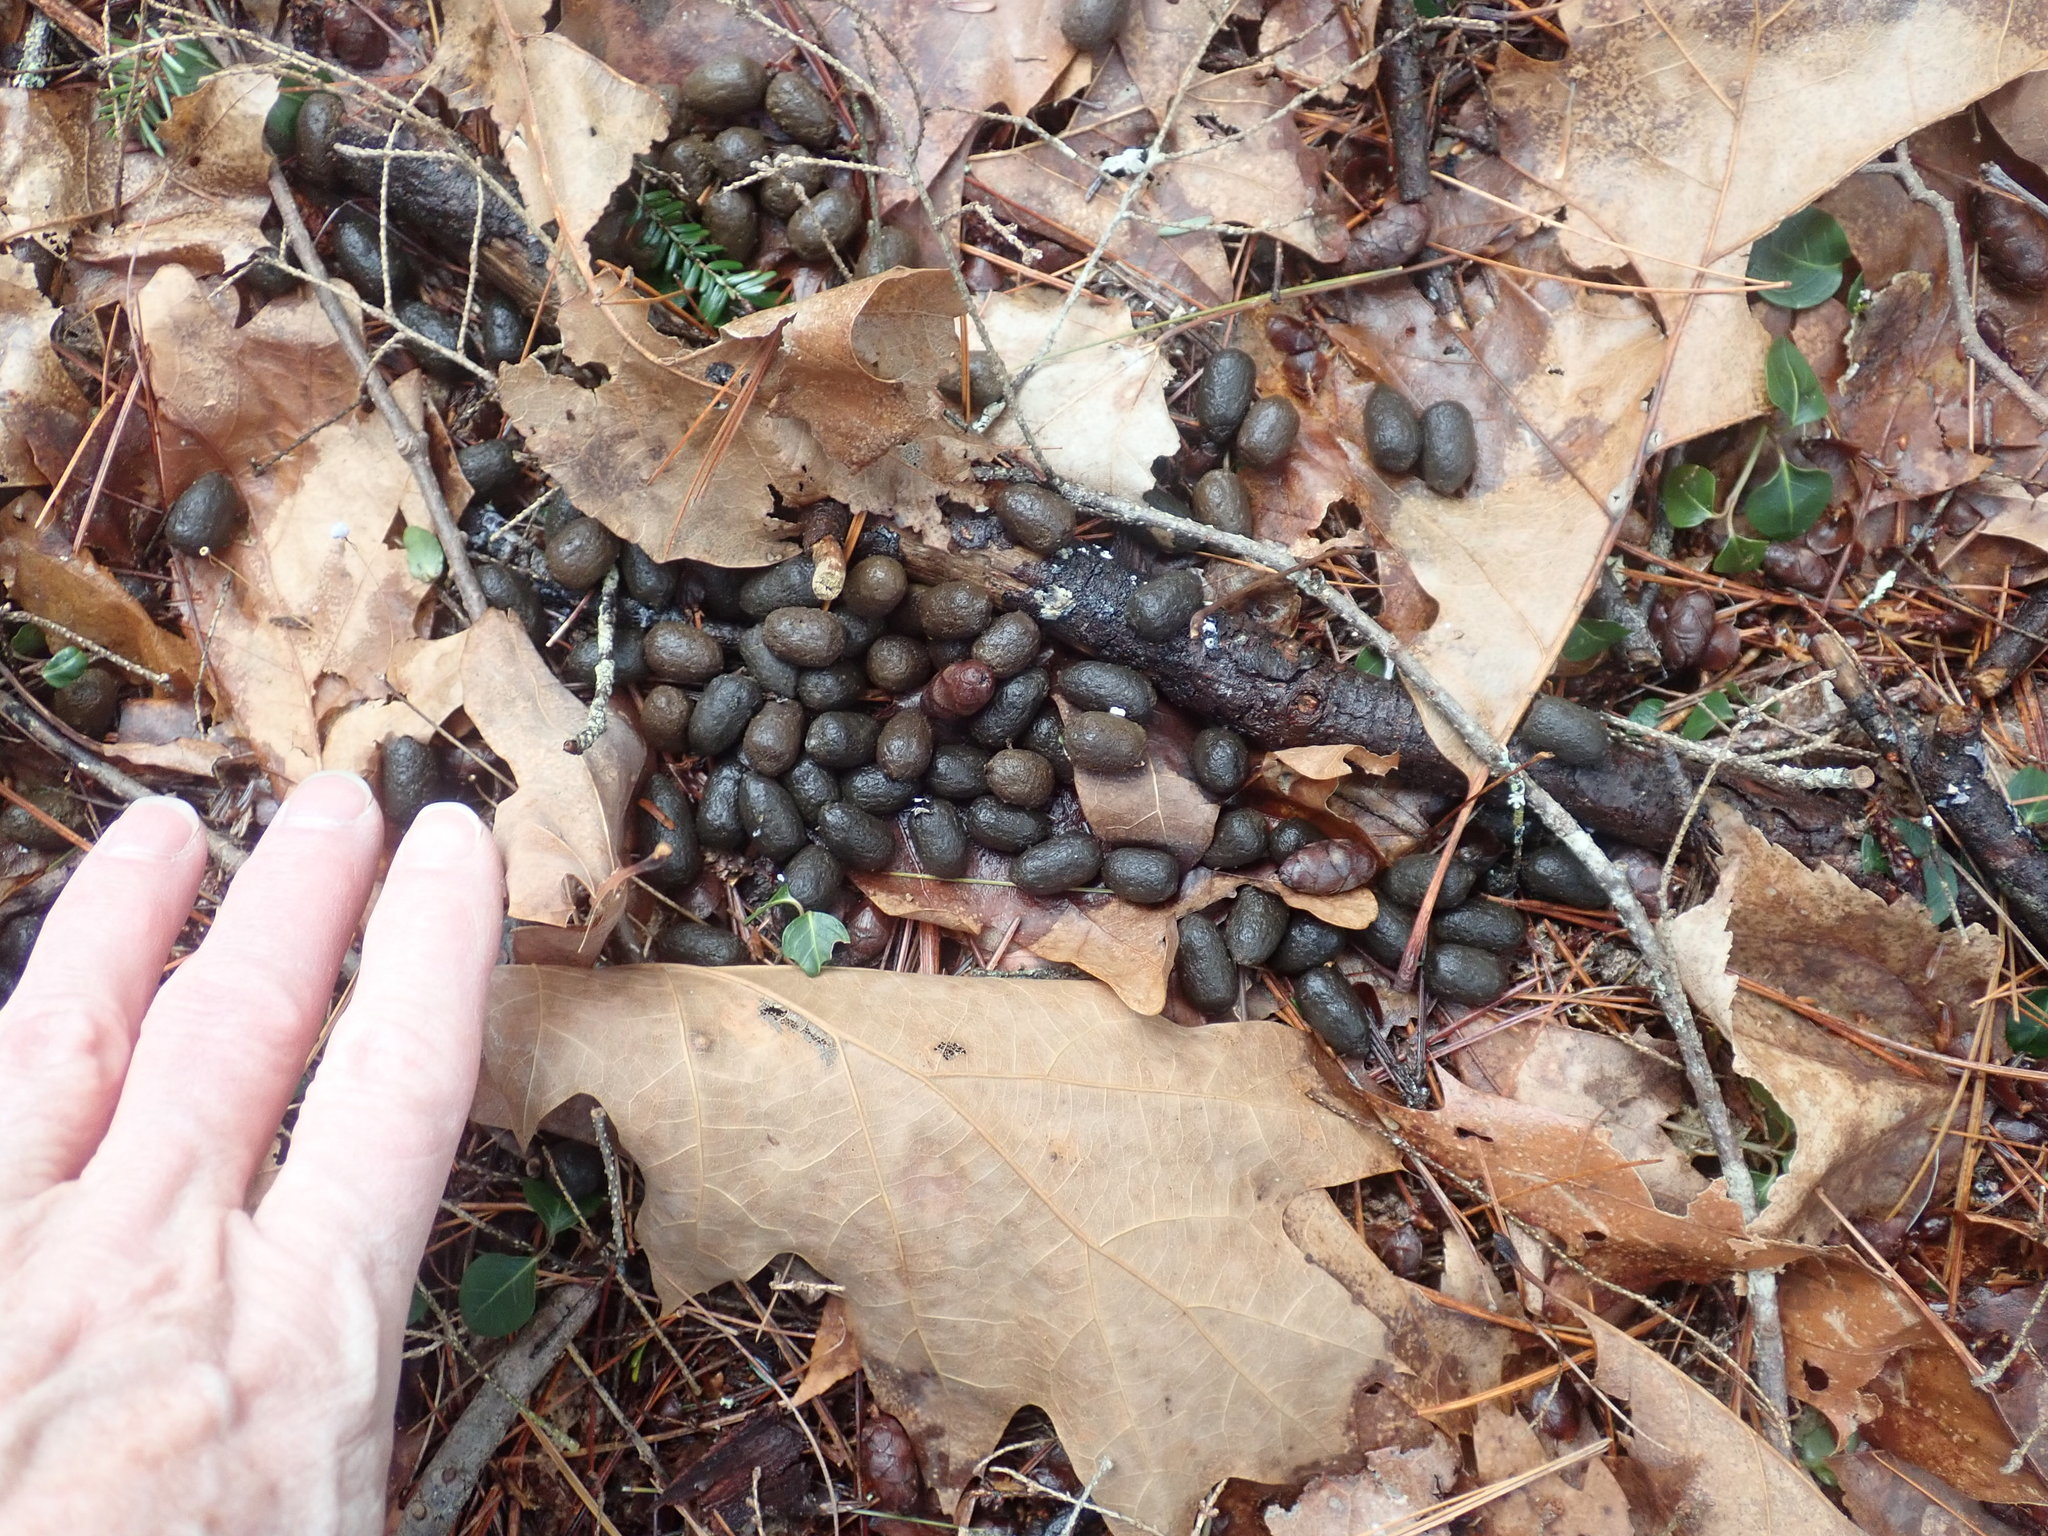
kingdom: Animalia
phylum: Chordata
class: Mammalia
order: Artiodactyla
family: Cervidae
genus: Odocoileus
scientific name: Odocoileus virginianus
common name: White-tailed deer
